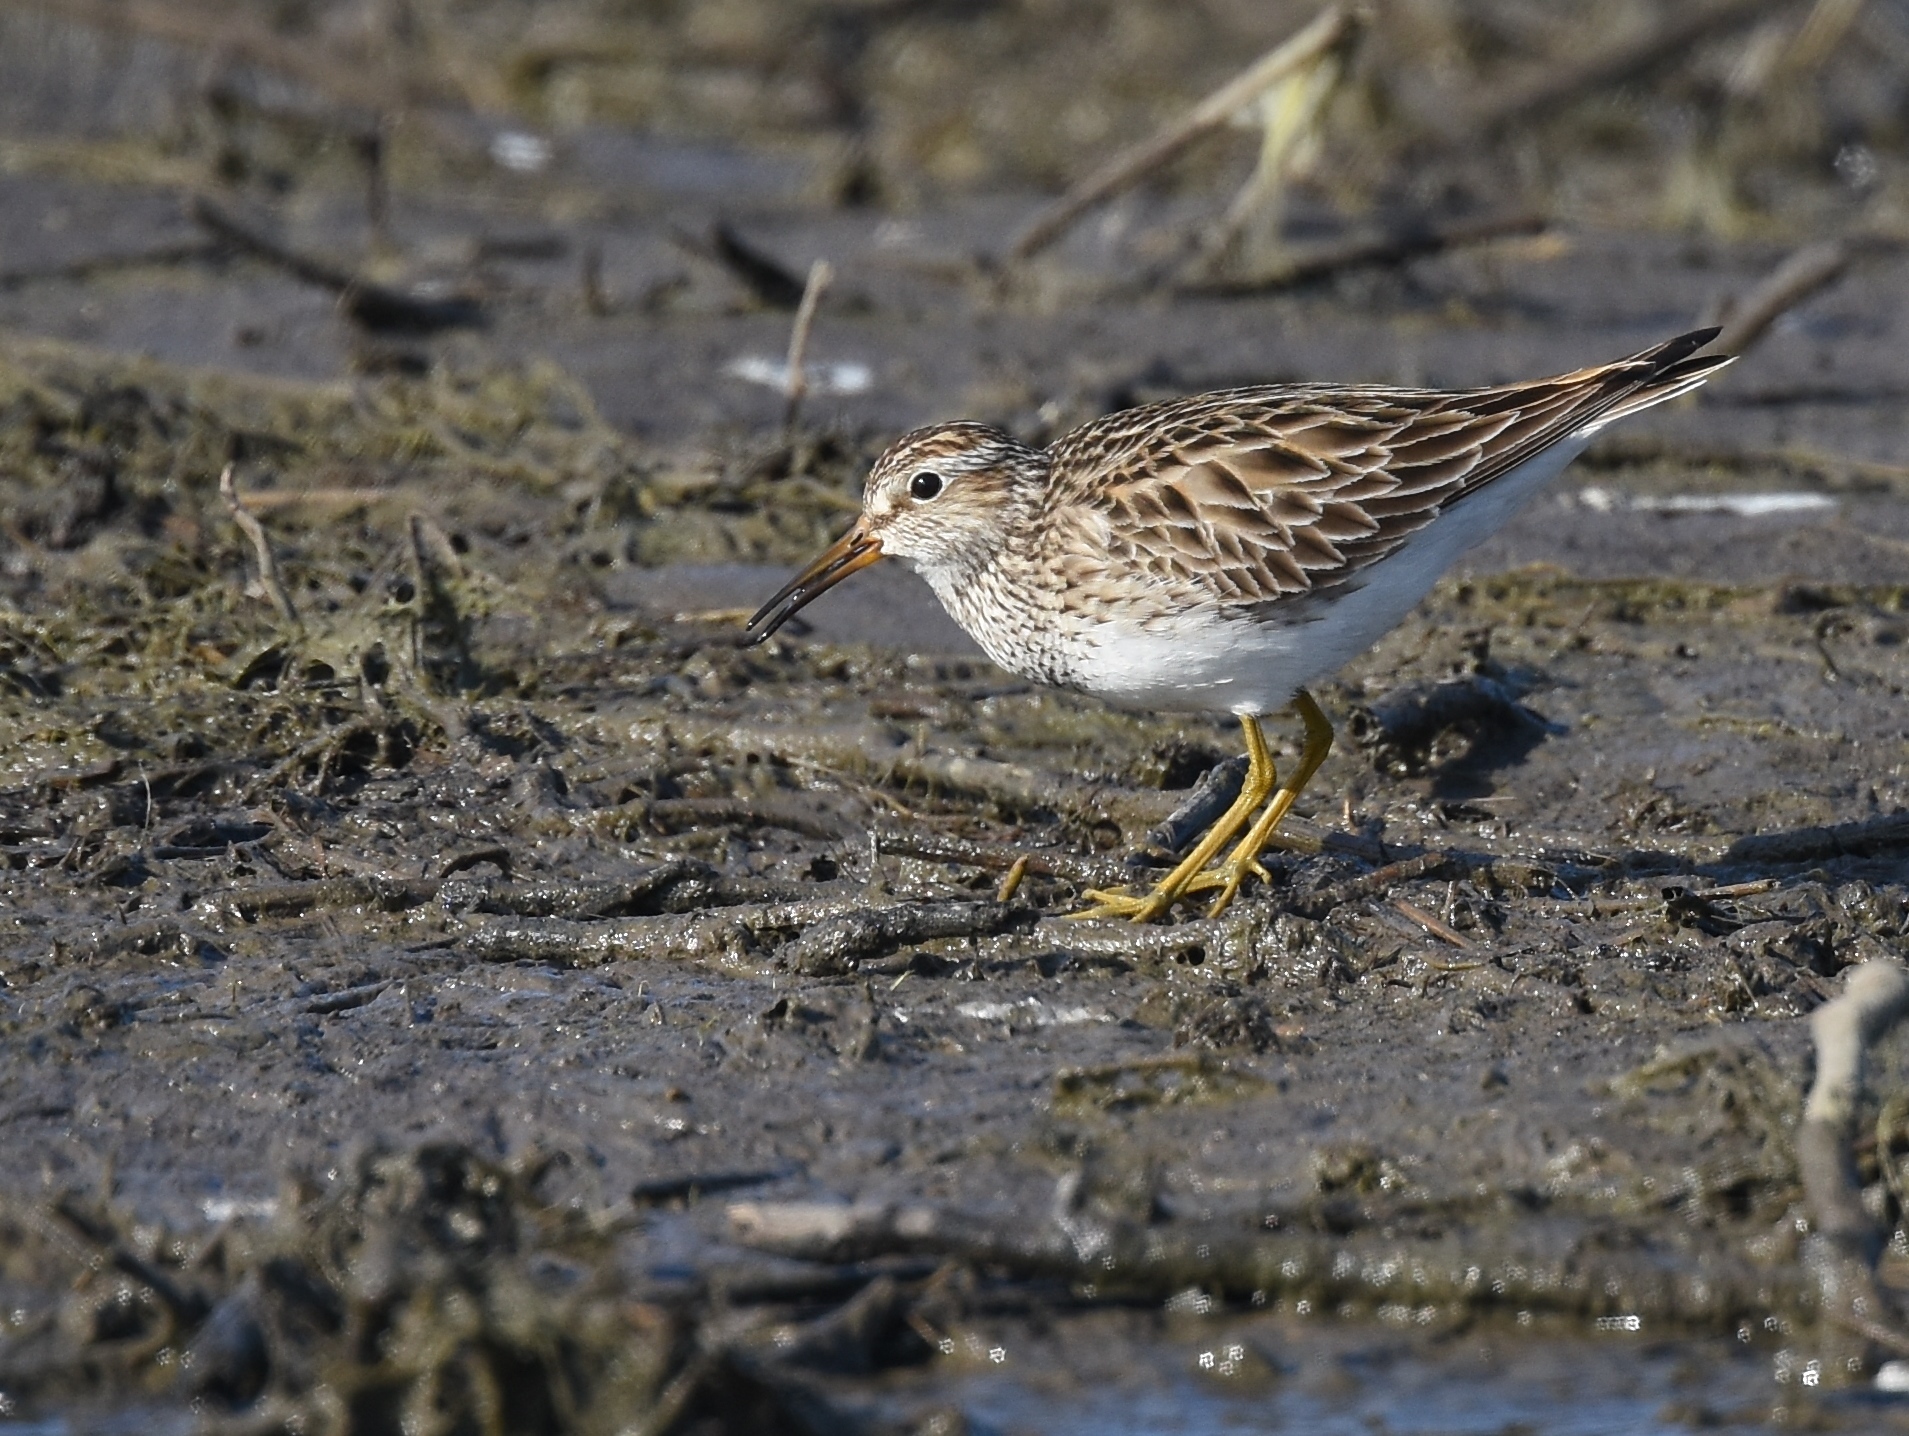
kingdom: Animalia
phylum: Chordata
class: Aves
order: Charadriiformes
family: Scolopacidae
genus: Calidris
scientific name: Calidris melanotos
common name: Pectoral sandpiper
